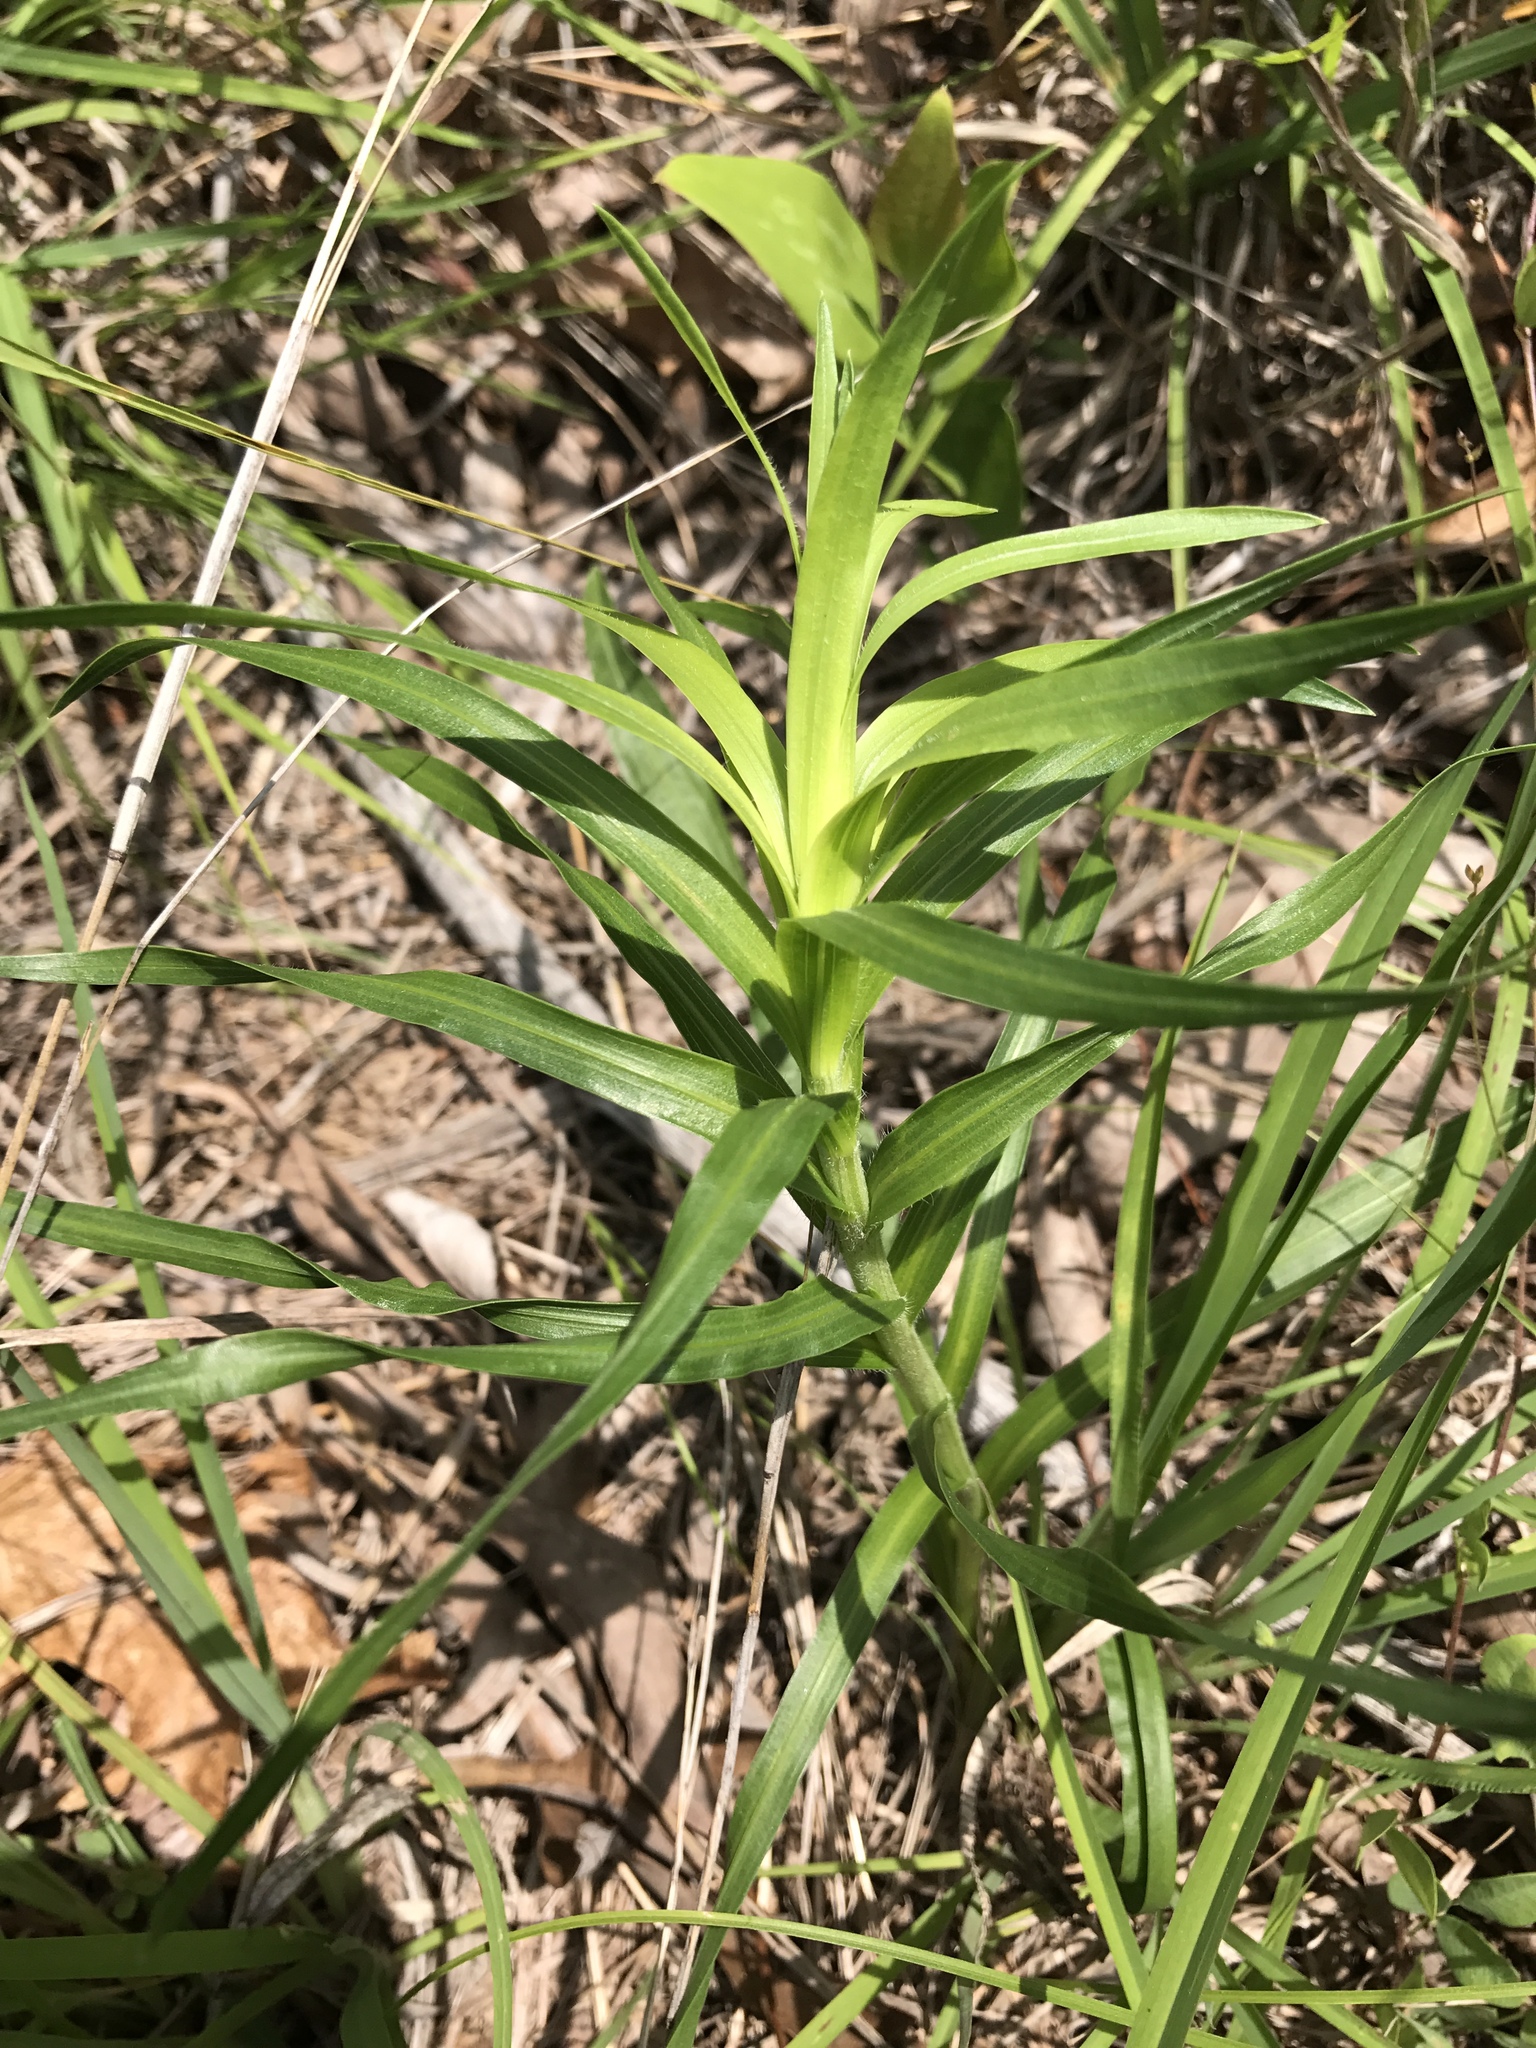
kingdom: Plantae
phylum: Tracheophyta
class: Magnoliopsida
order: Asterales
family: Asteraceae
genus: Liatris
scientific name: Liatris squarrosa
